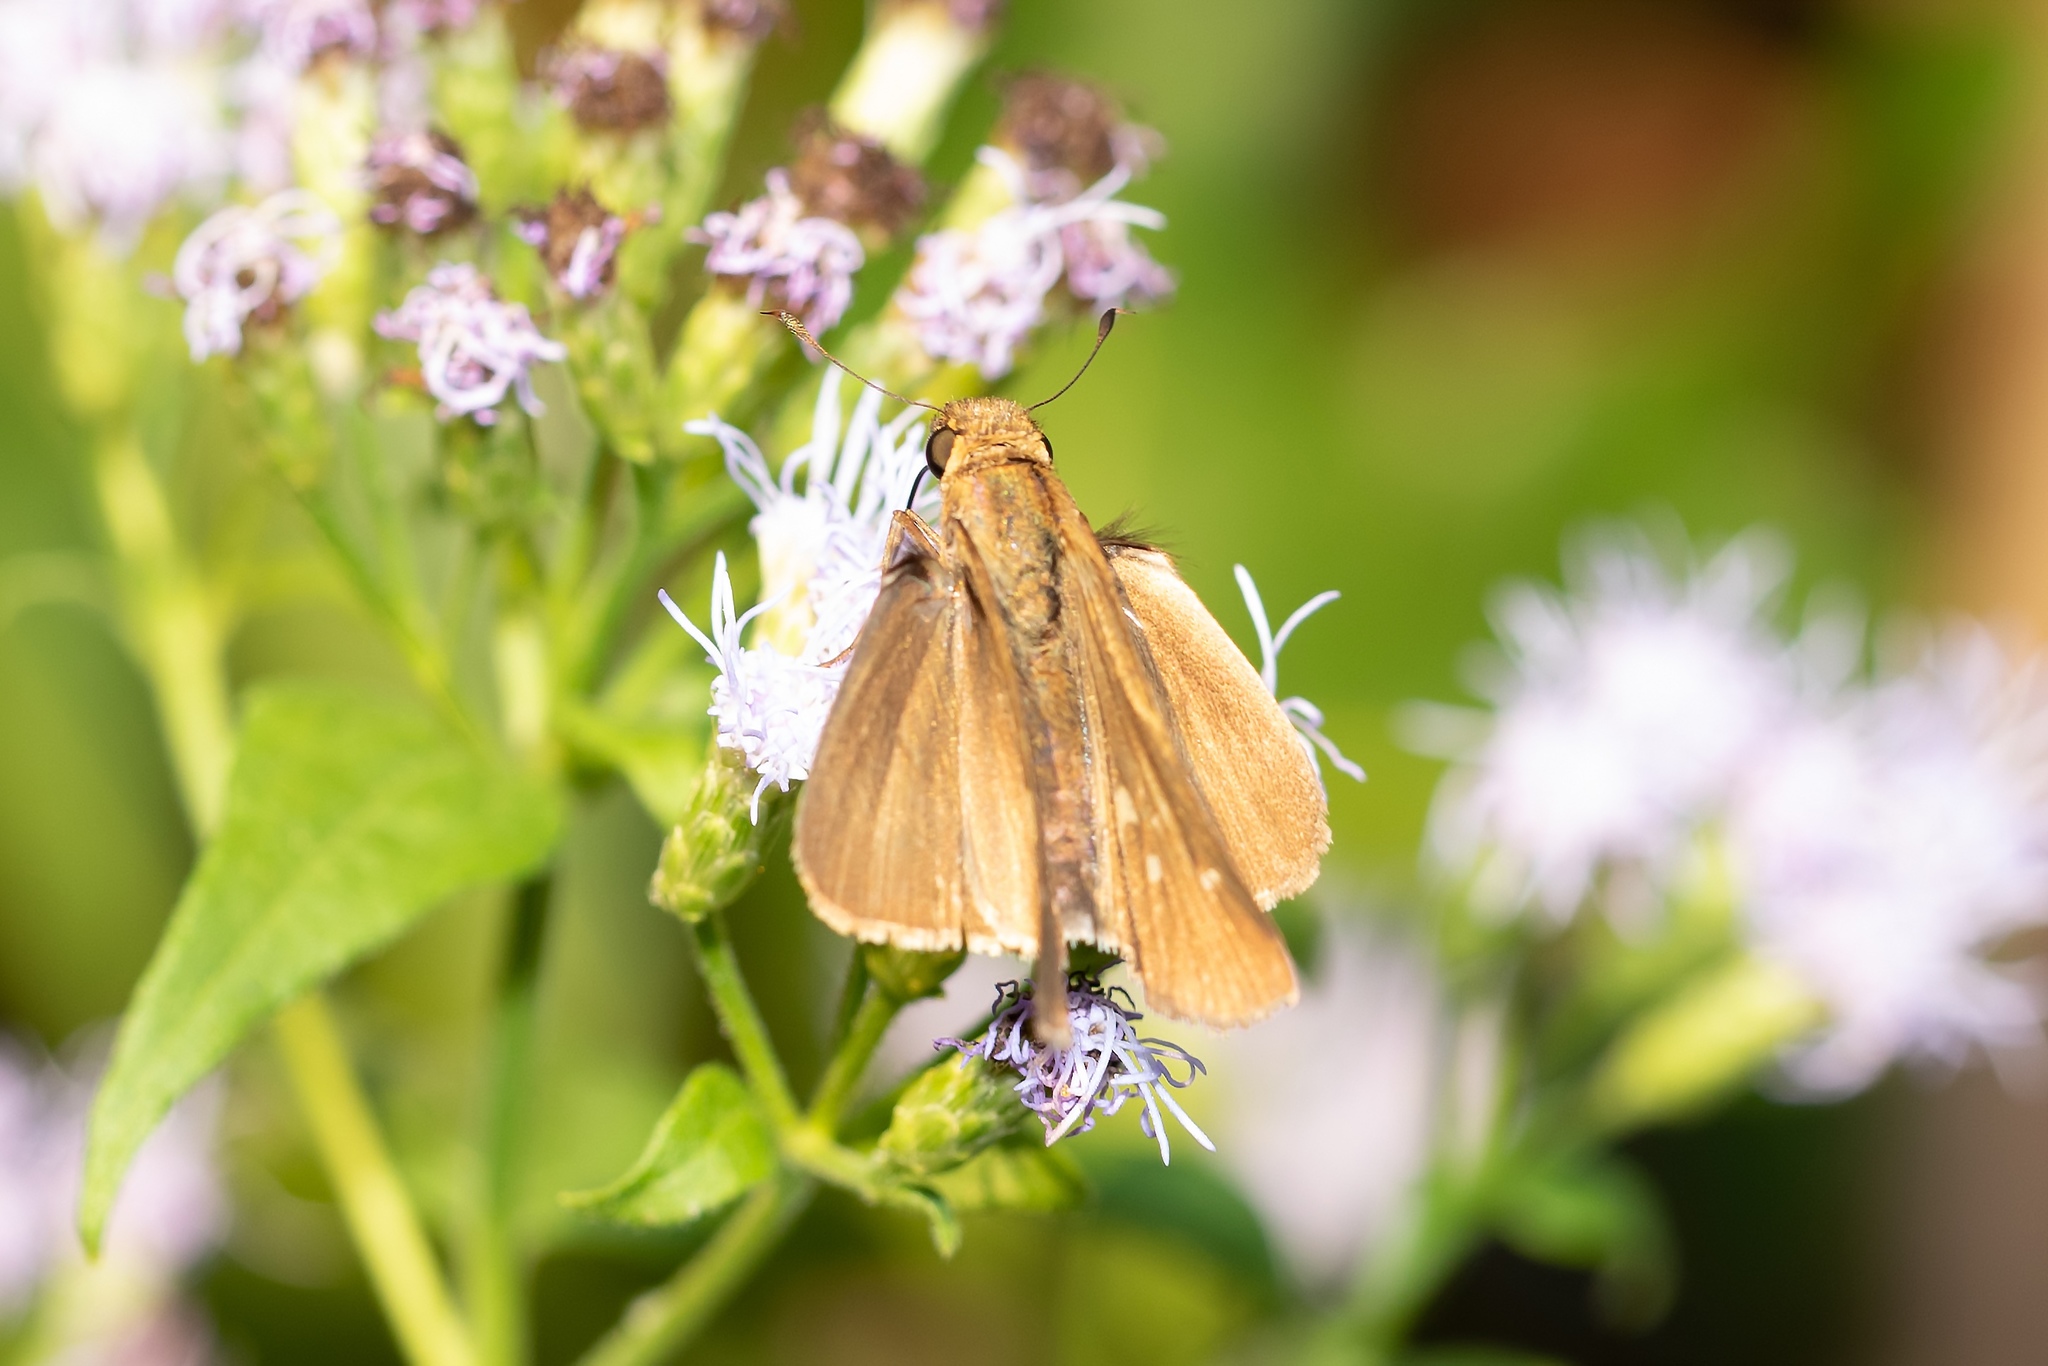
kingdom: Animalia
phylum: Arthropoda
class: Insecta
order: Lepidoptera
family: Hesperiidae
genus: Panoquina
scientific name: Panoquina ocola
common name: Ocola skipper
